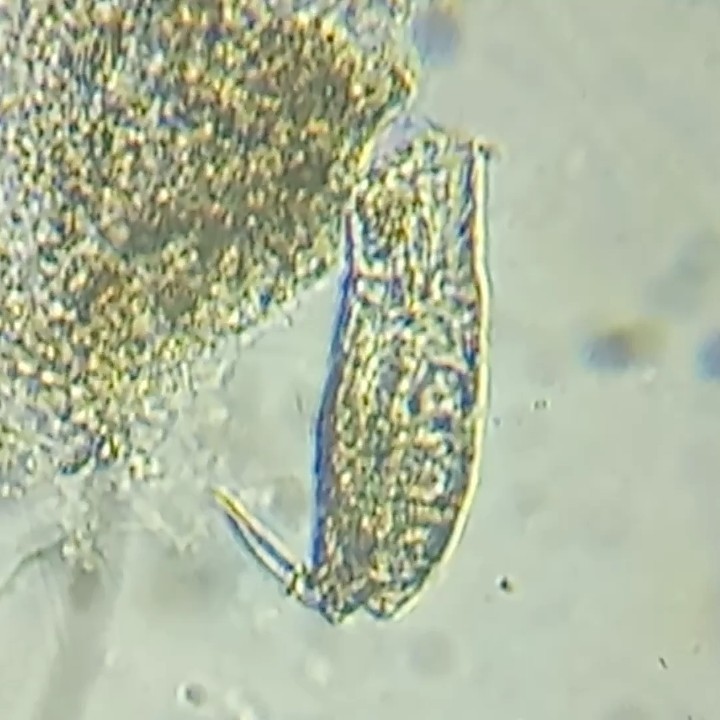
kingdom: Animalia
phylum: Rotifera
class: Eurotatoria
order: Ploima
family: Lecanidae
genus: Lecane
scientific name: Lecane
